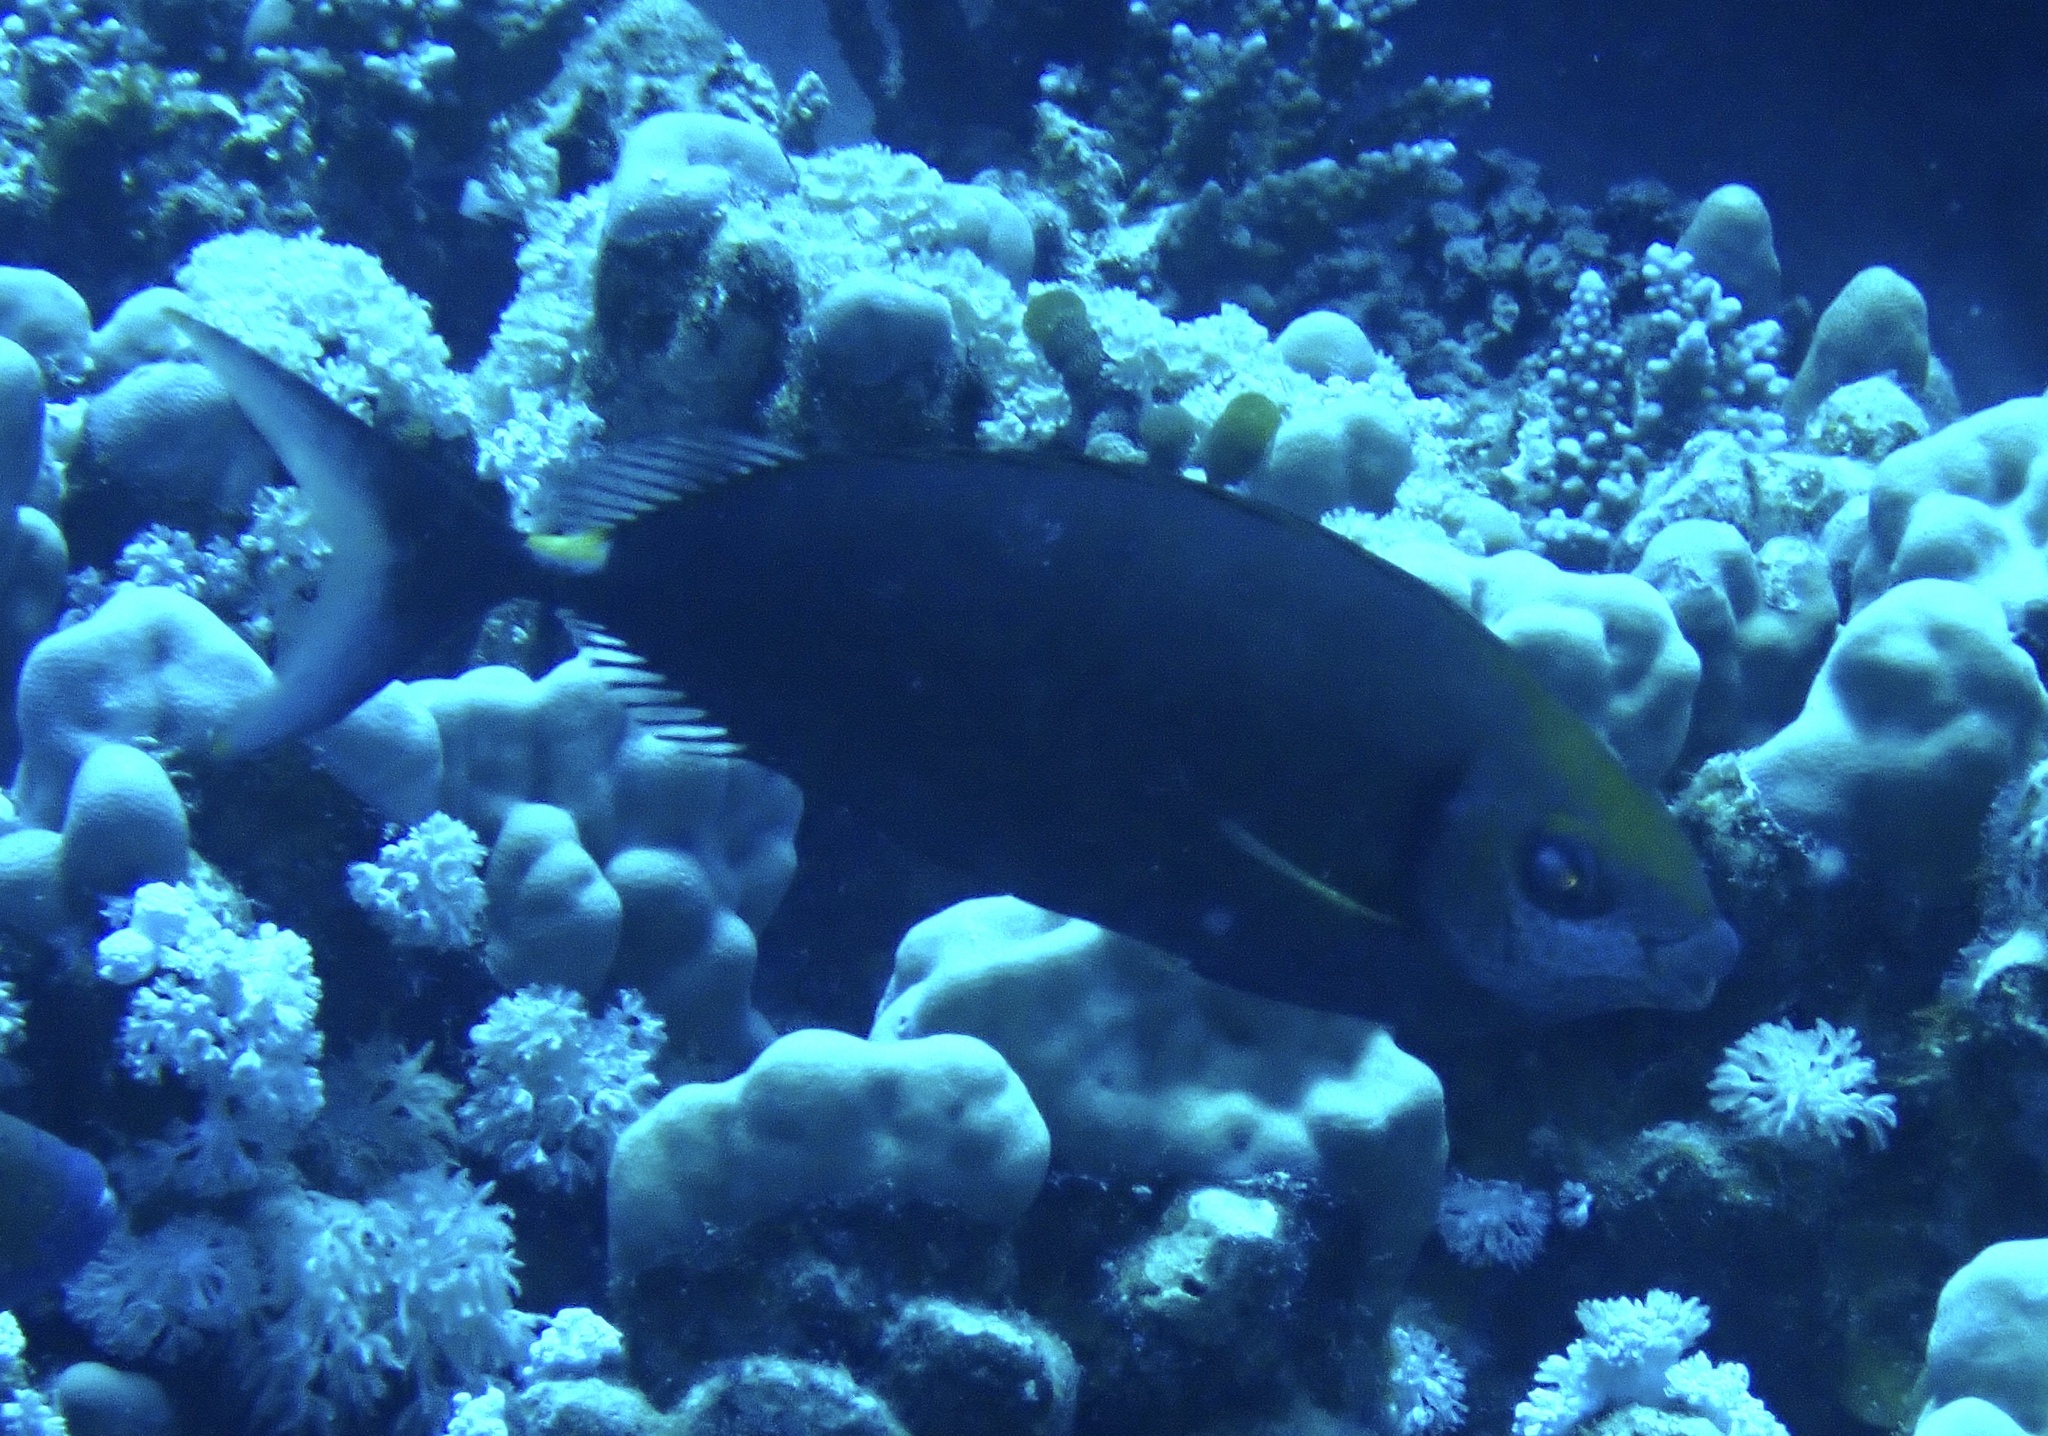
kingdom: Animalia
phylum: Chordata
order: Perciformes
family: Siganidae
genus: Siganus
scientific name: Siganus argenteus
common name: Forktail rabbitfish
